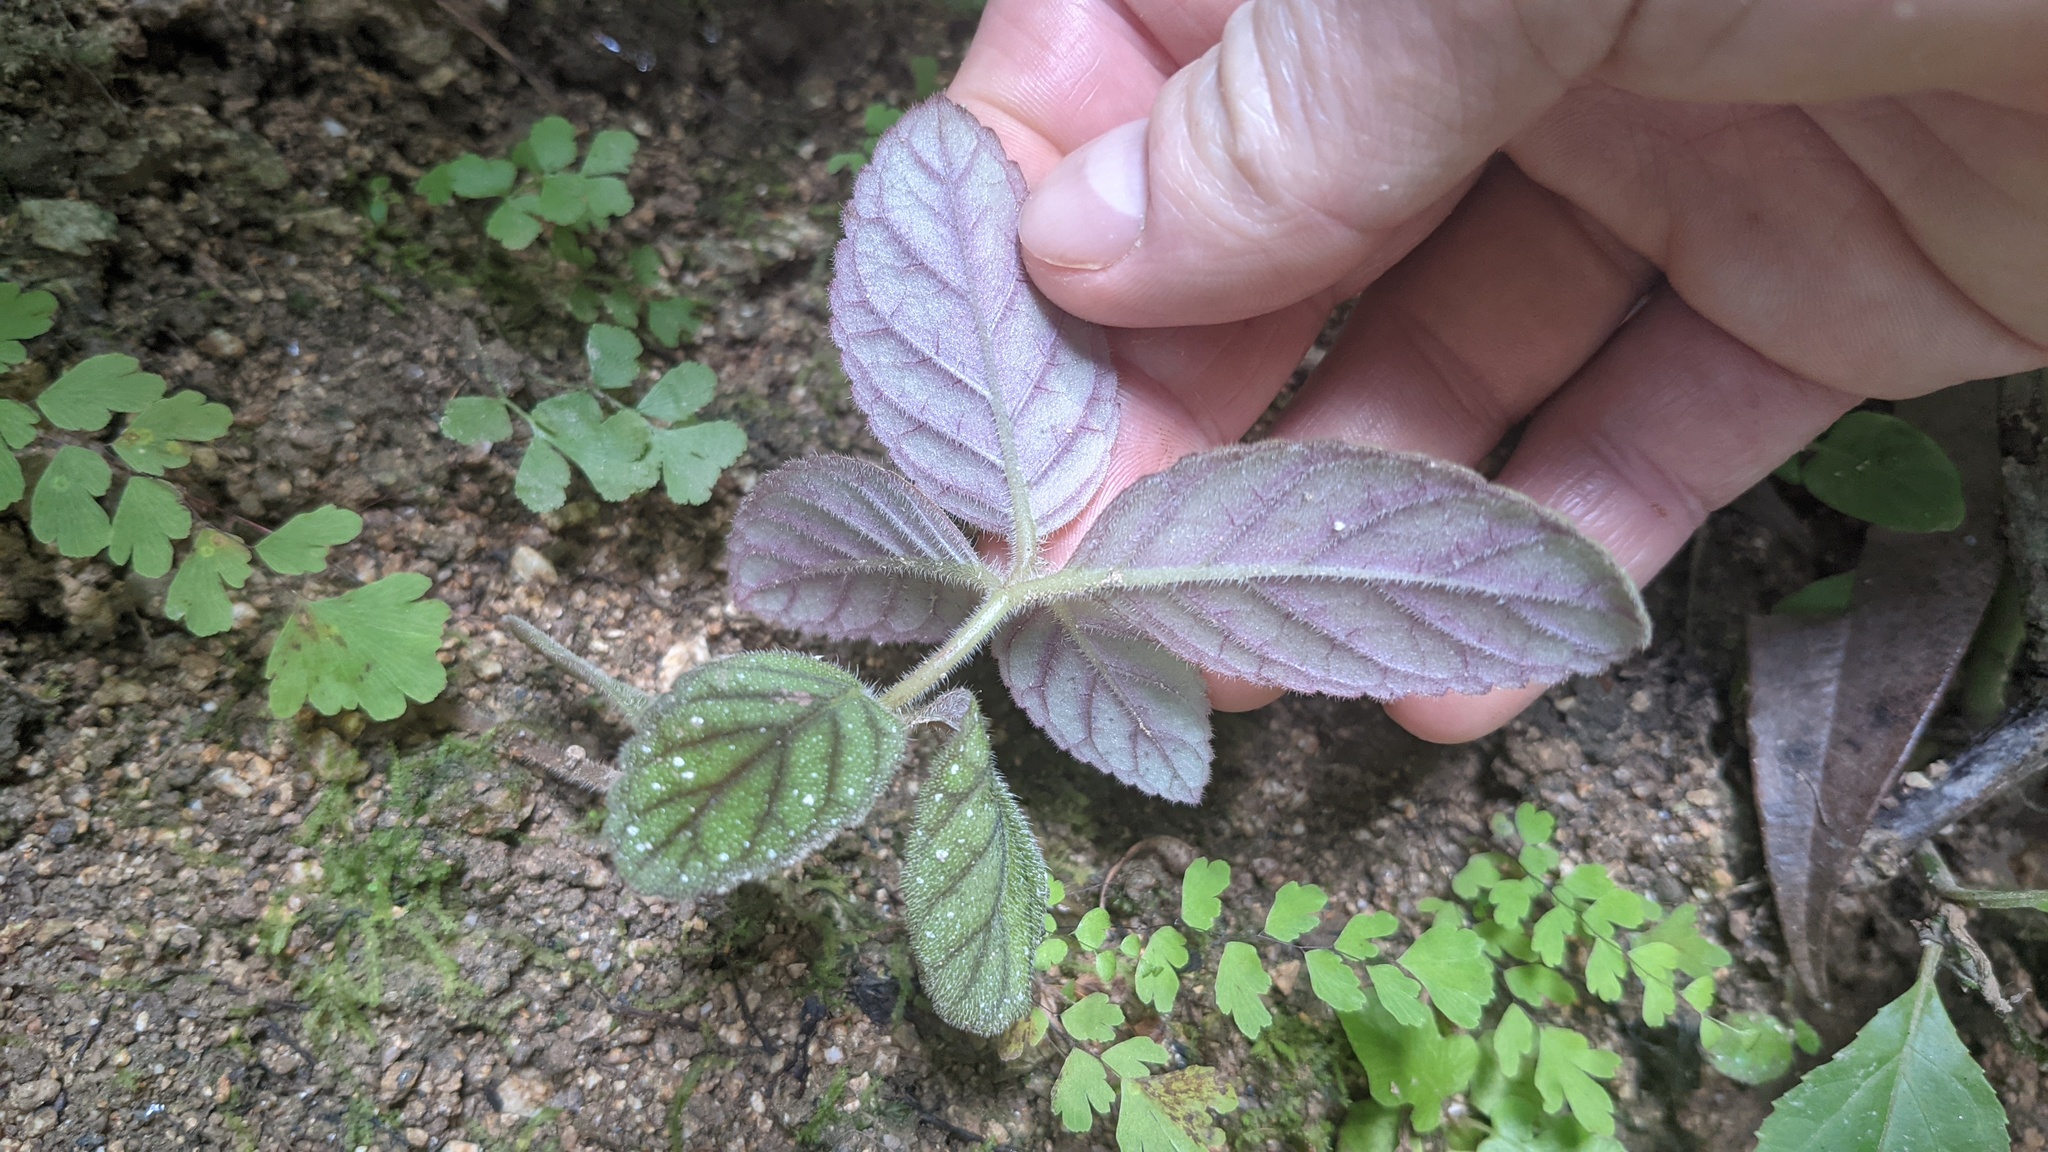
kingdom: Plantae
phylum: Tracheophyta
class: Magnoliopsida
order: Lamiales
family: Gesneriaceae
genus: Gloxinia
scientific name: Gloxinia erinoides
